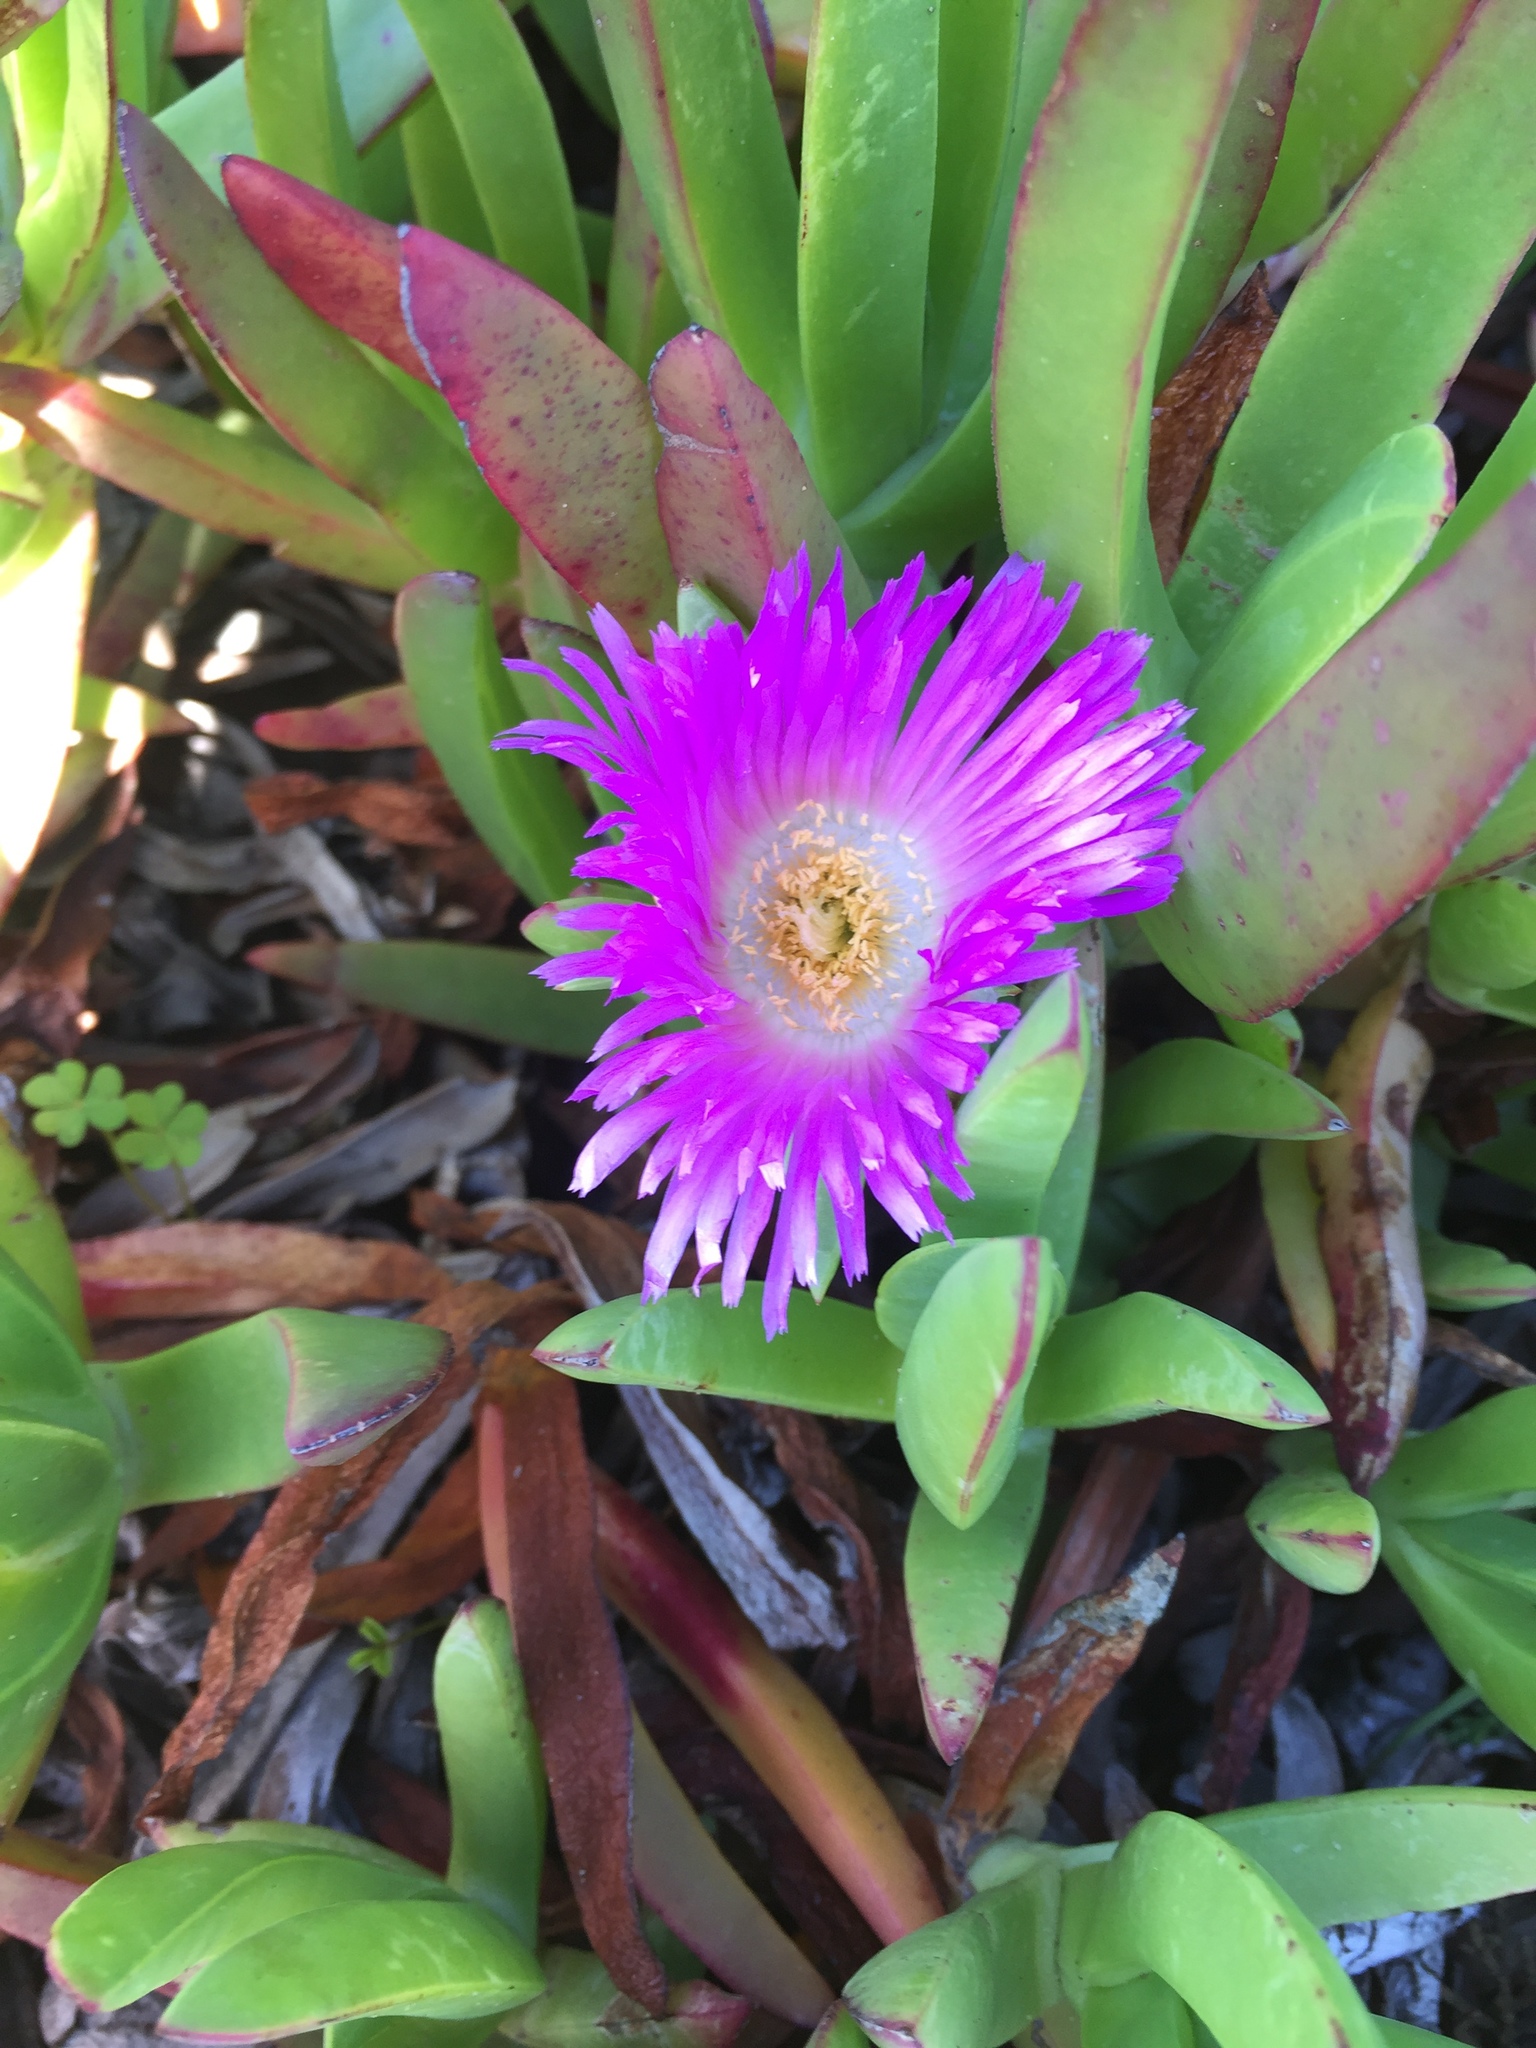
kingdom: Plantae
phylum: Tracheophyta
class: Magnoliopsida
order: Caryophyllales
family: Aizoaceae
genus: Carpobrotus
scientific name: Carpobrotus chilensis
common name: Sea fig
